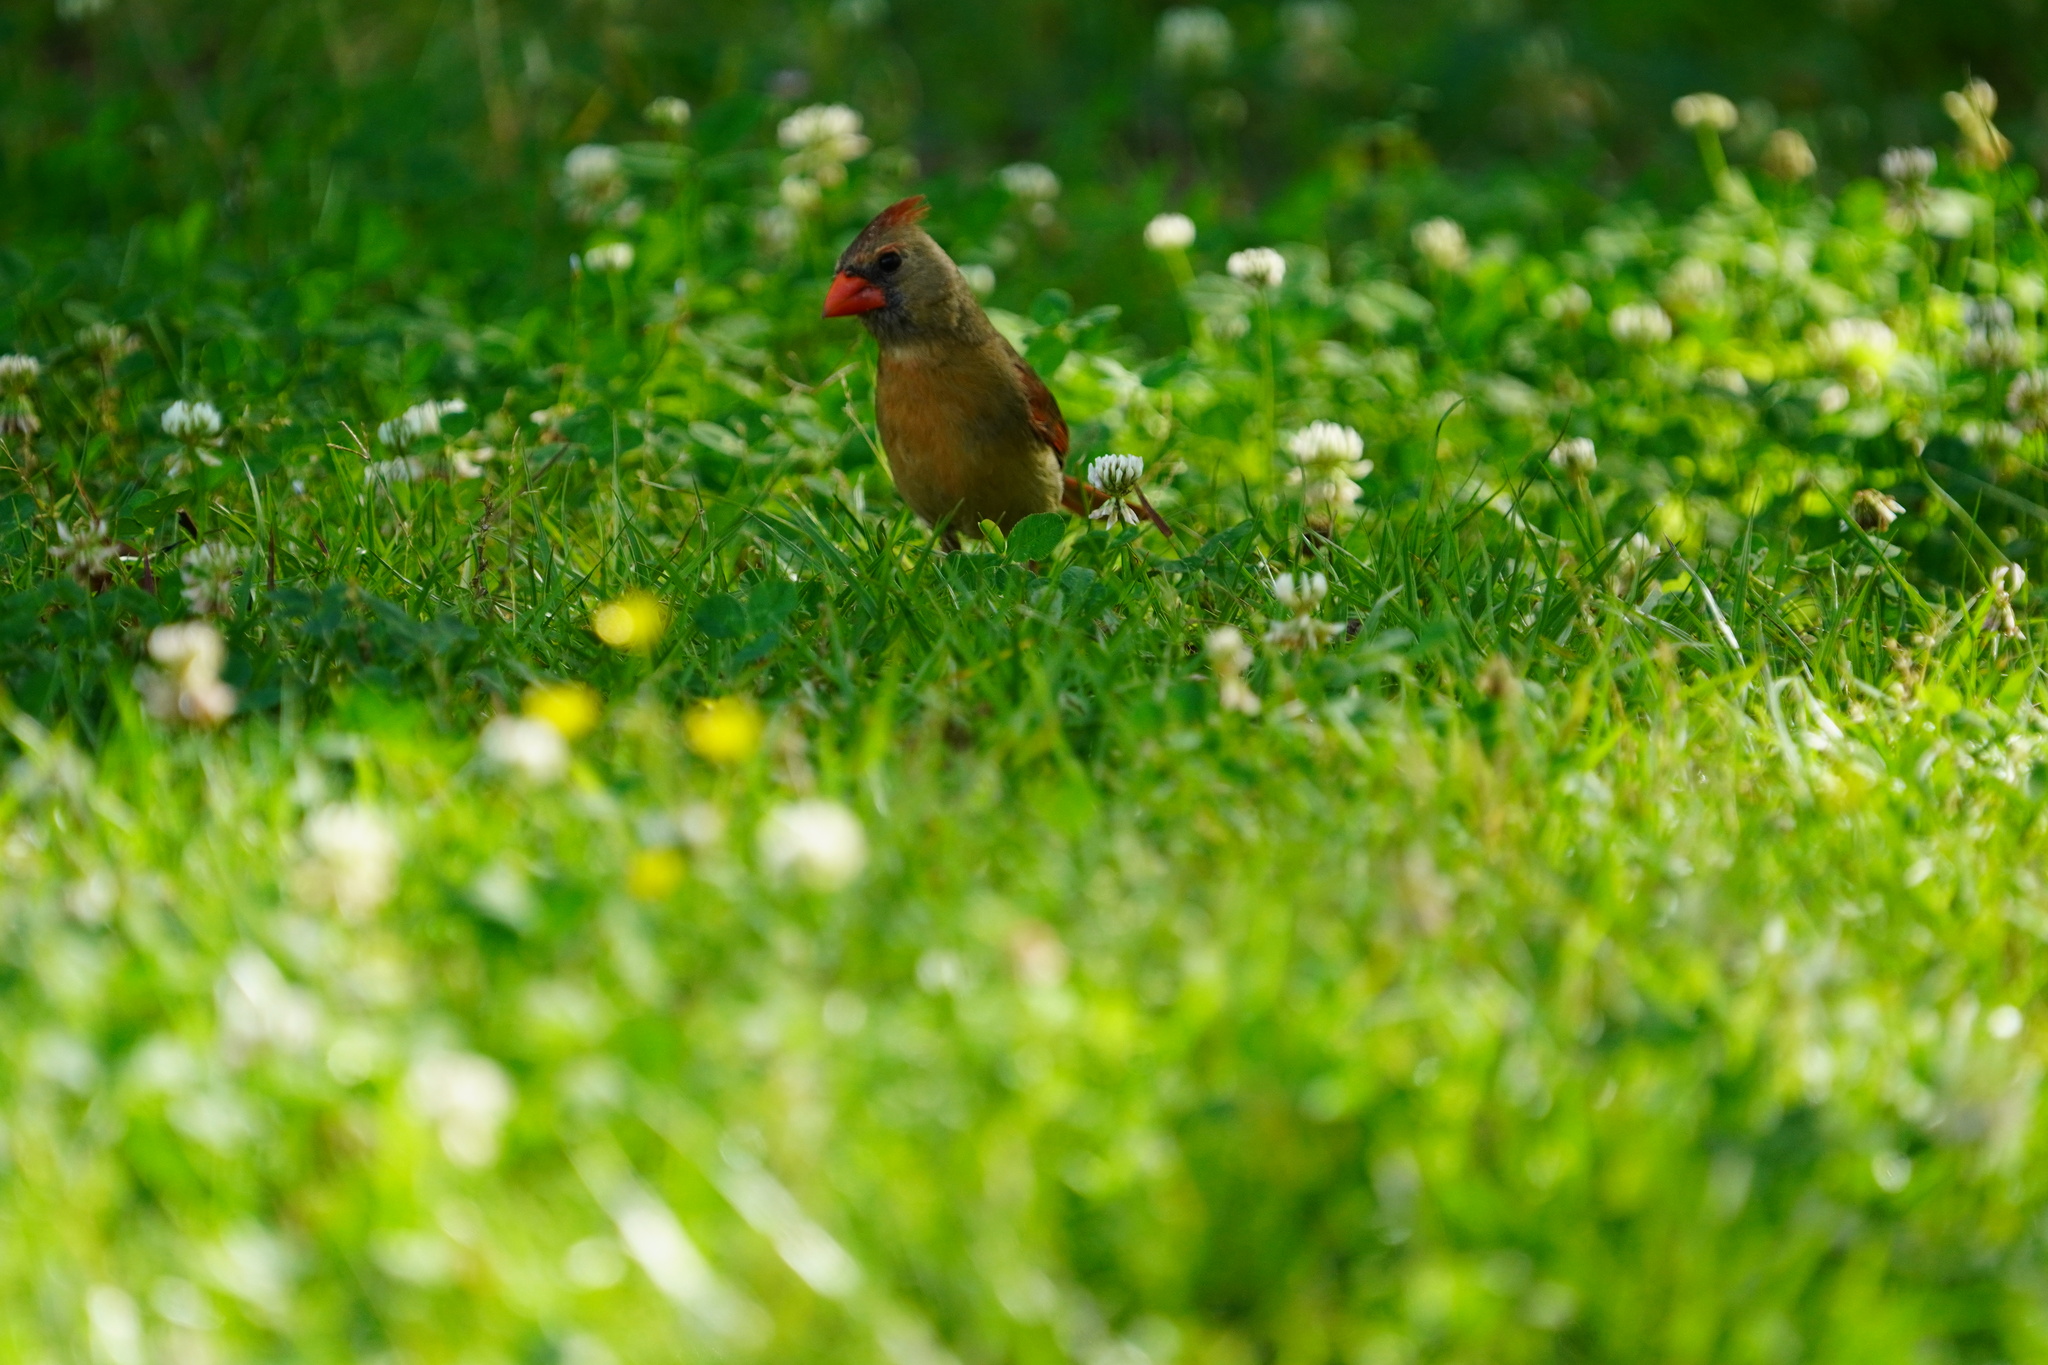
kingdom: Animalia
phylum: Chordata
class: Aves
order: Passeriformes
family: Cardinalidae
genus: Cardinalis
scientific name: Cardinalis cardinalis
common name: Northern cardinal
